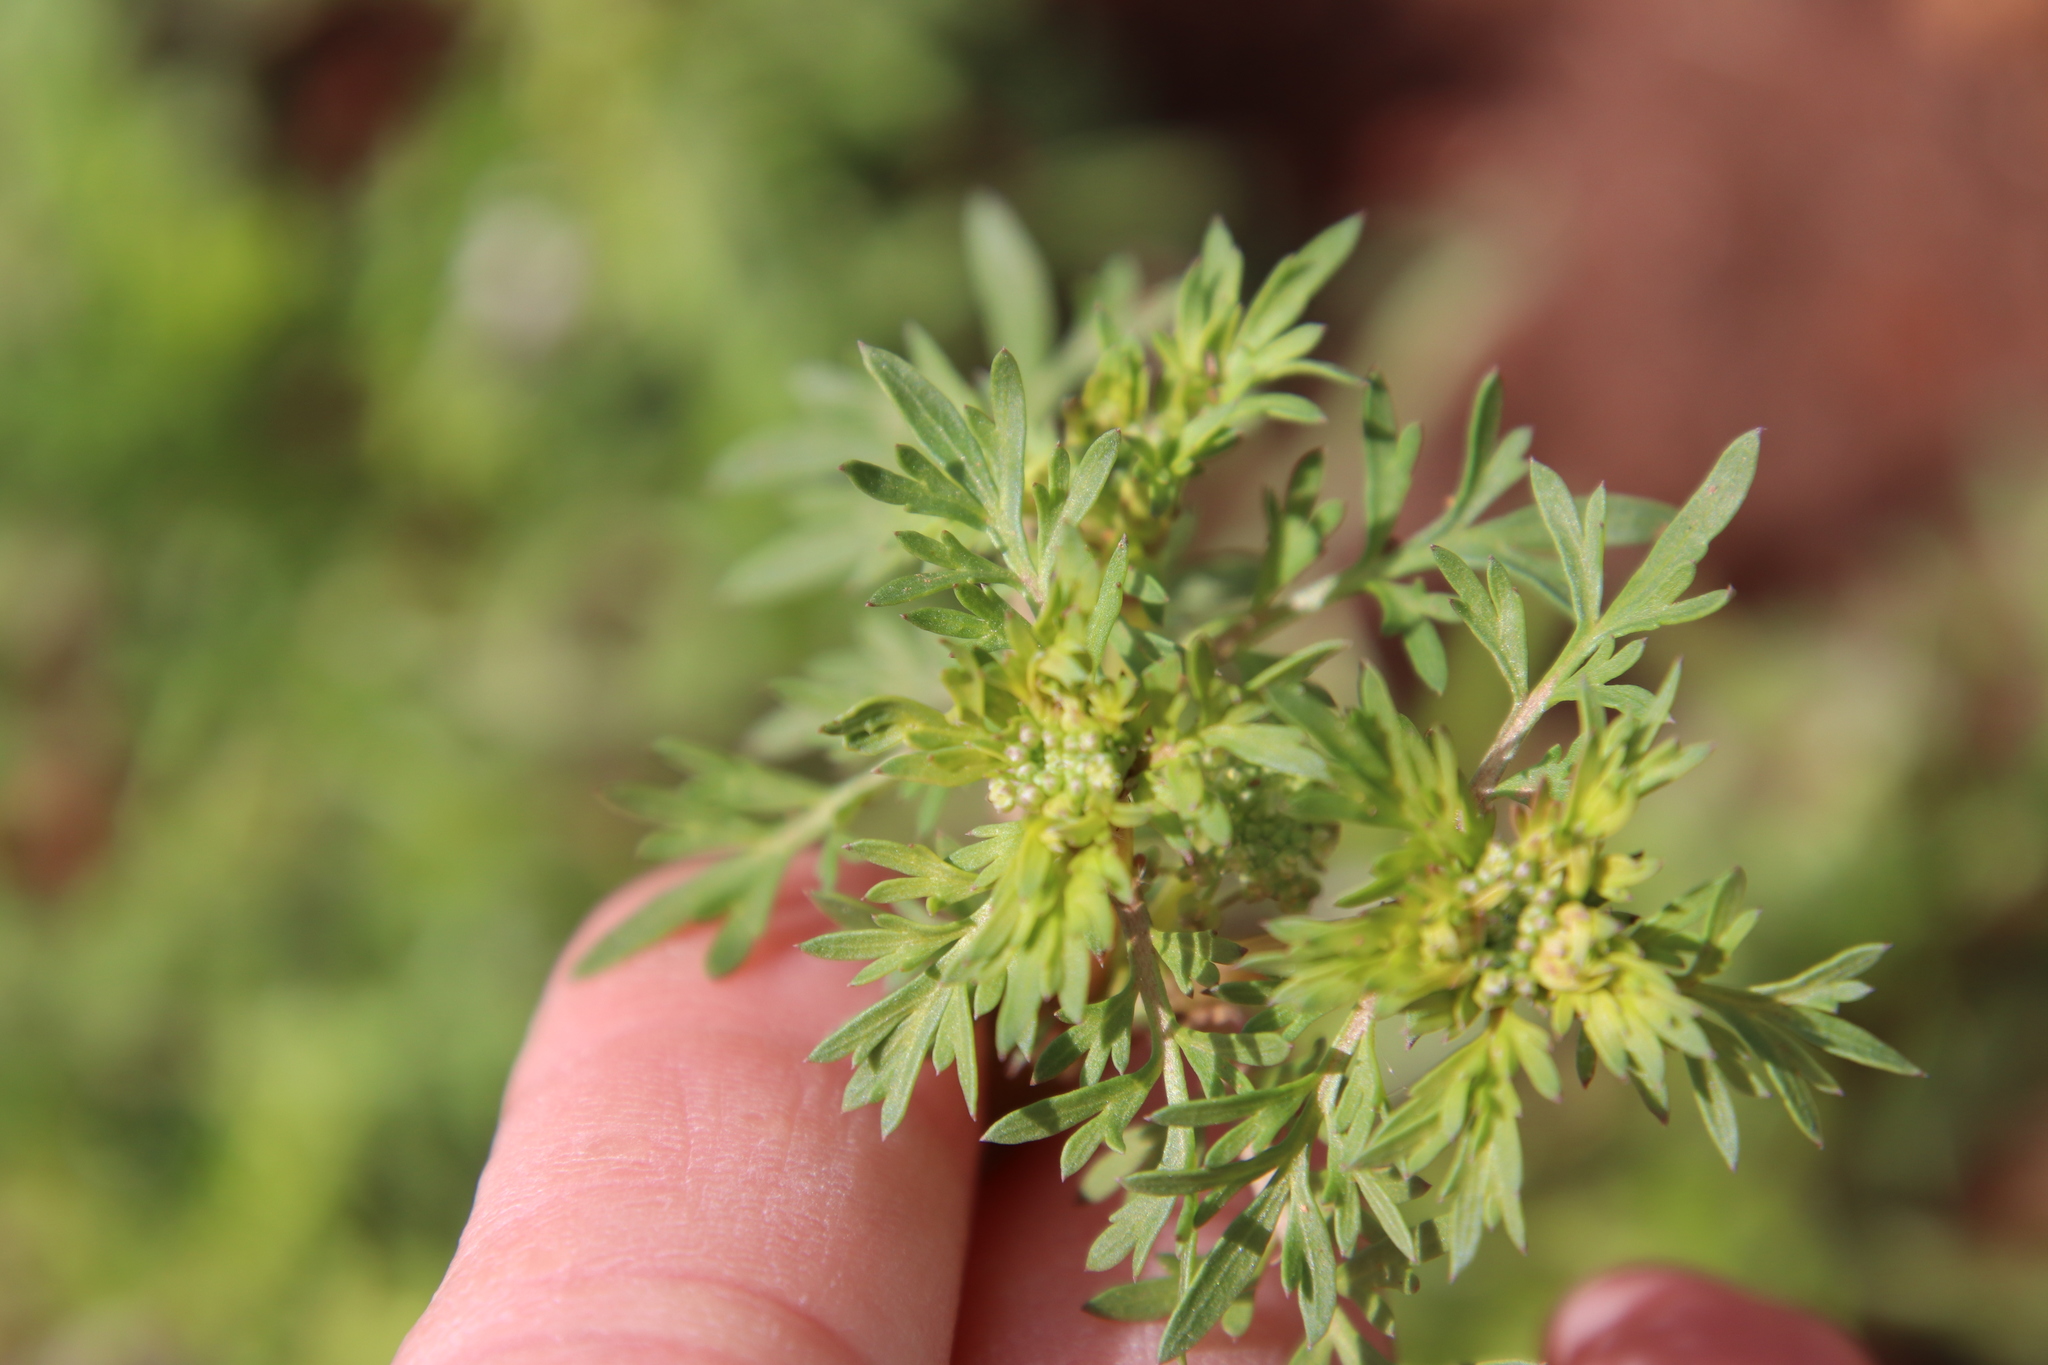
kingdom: Plantae
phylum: Tracheophyta
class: Magnoliopsida
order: Brassicales
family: Brassicaceae
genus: Lepidium
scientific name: Lepidium didymum
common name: Lesser swinecress
